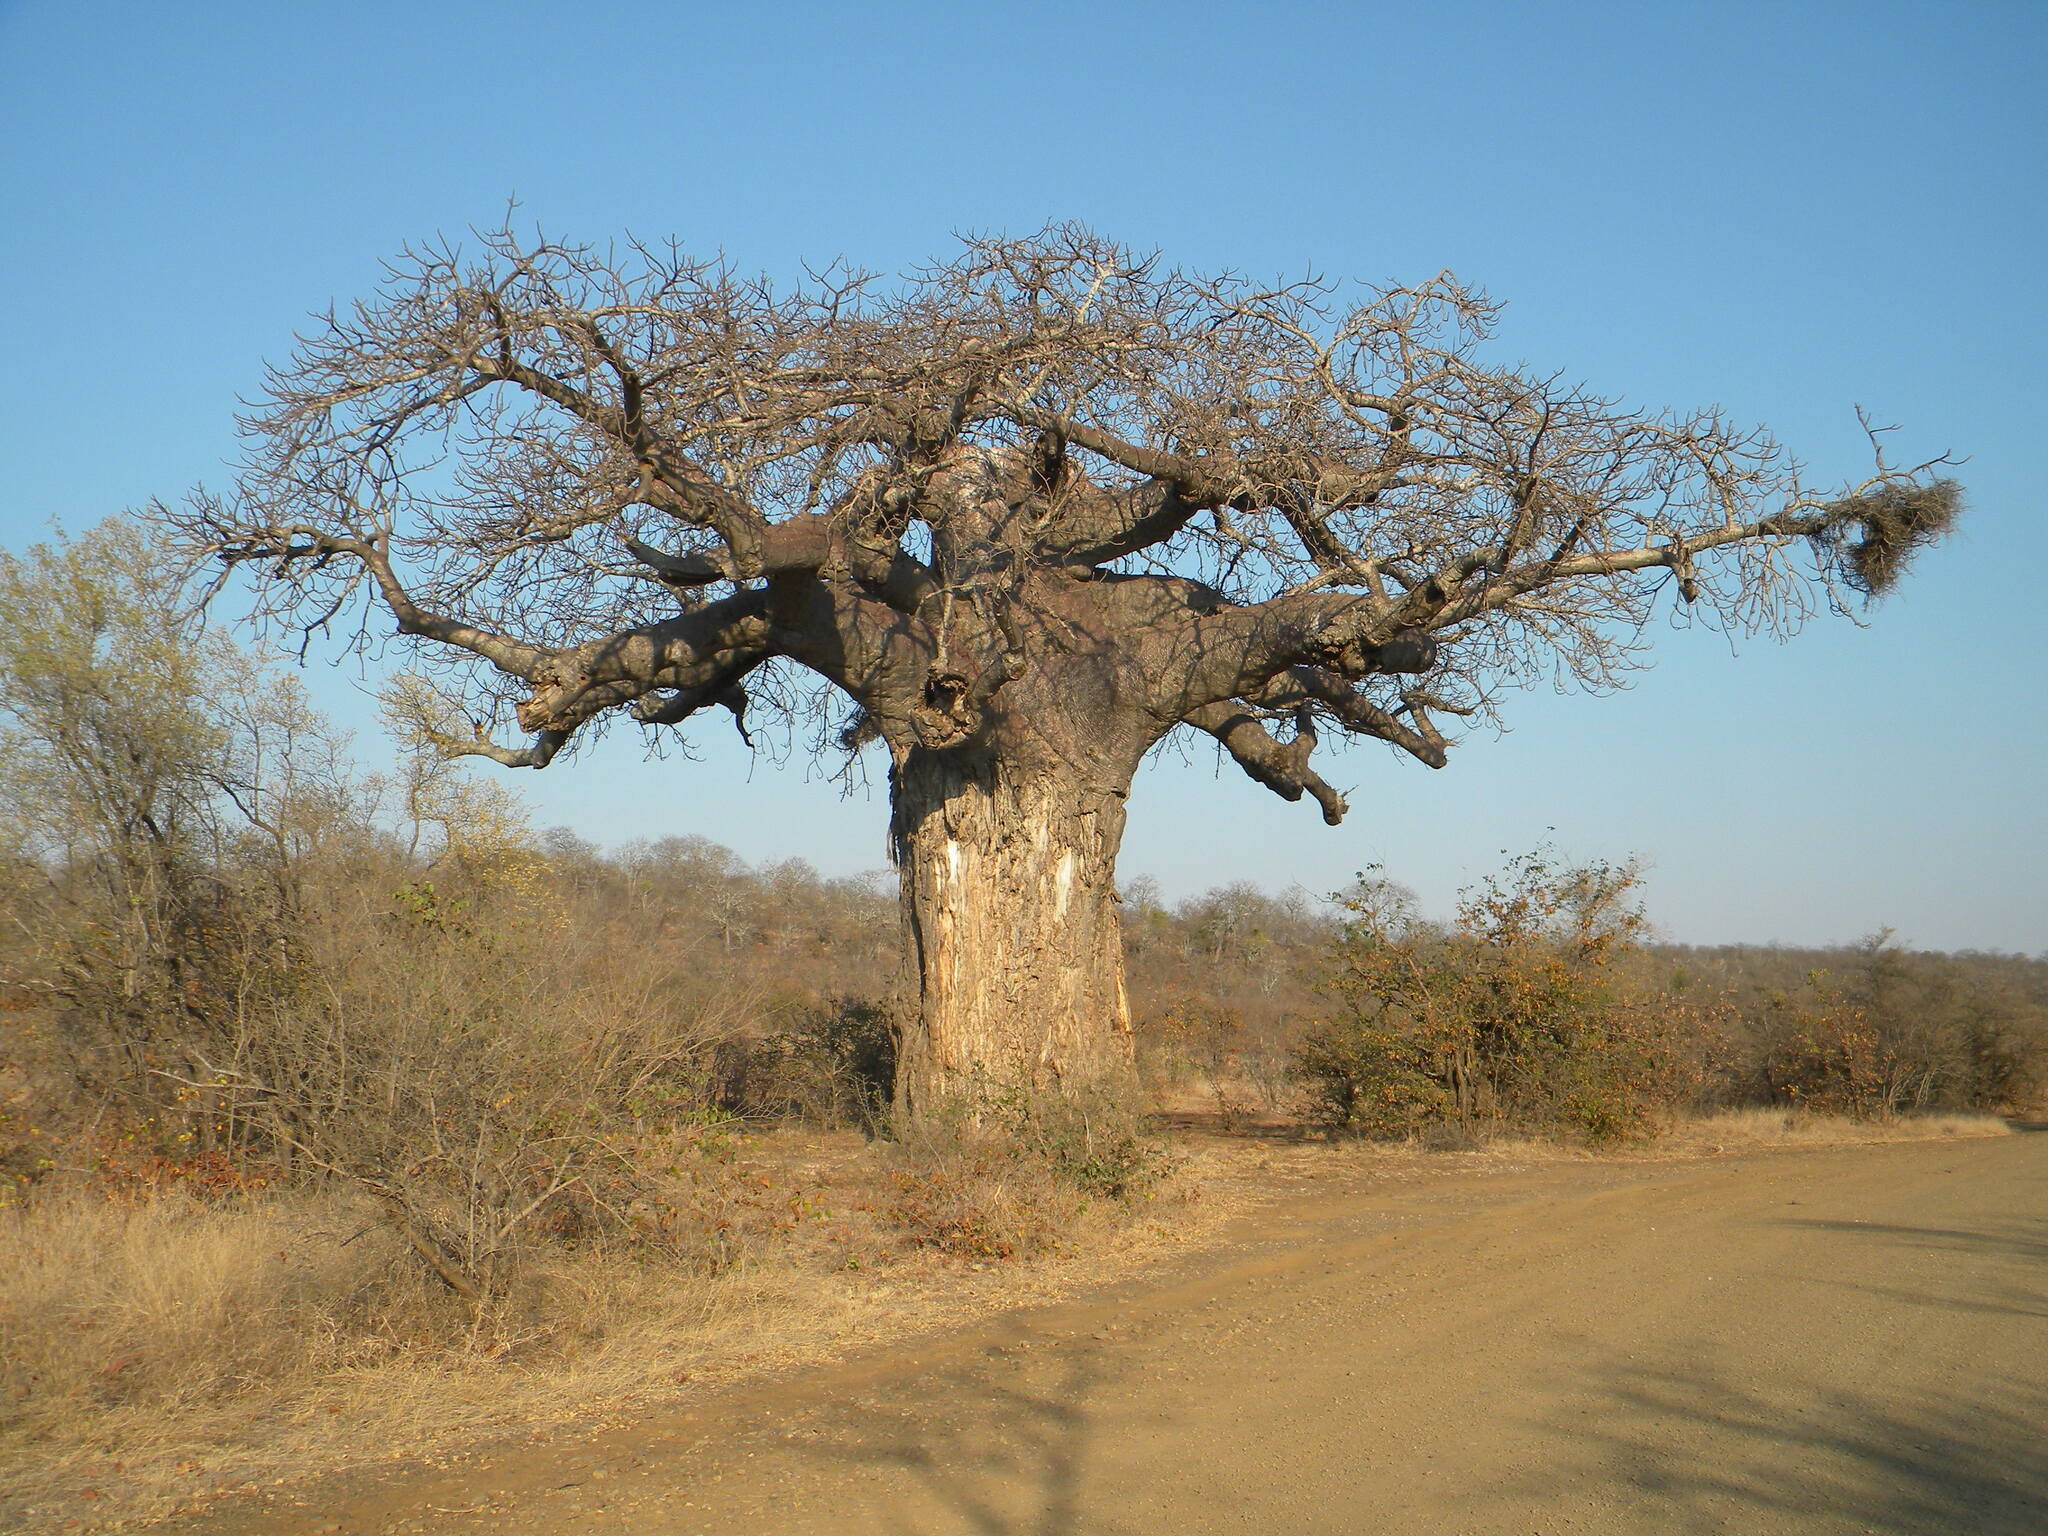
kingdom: Plantae
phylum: Tracheophyta
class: Magnoliopsida
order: Malvales
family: Malvaceae
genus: Adansonia
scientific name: Adansonia digitata
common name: Dead-rat-tree
